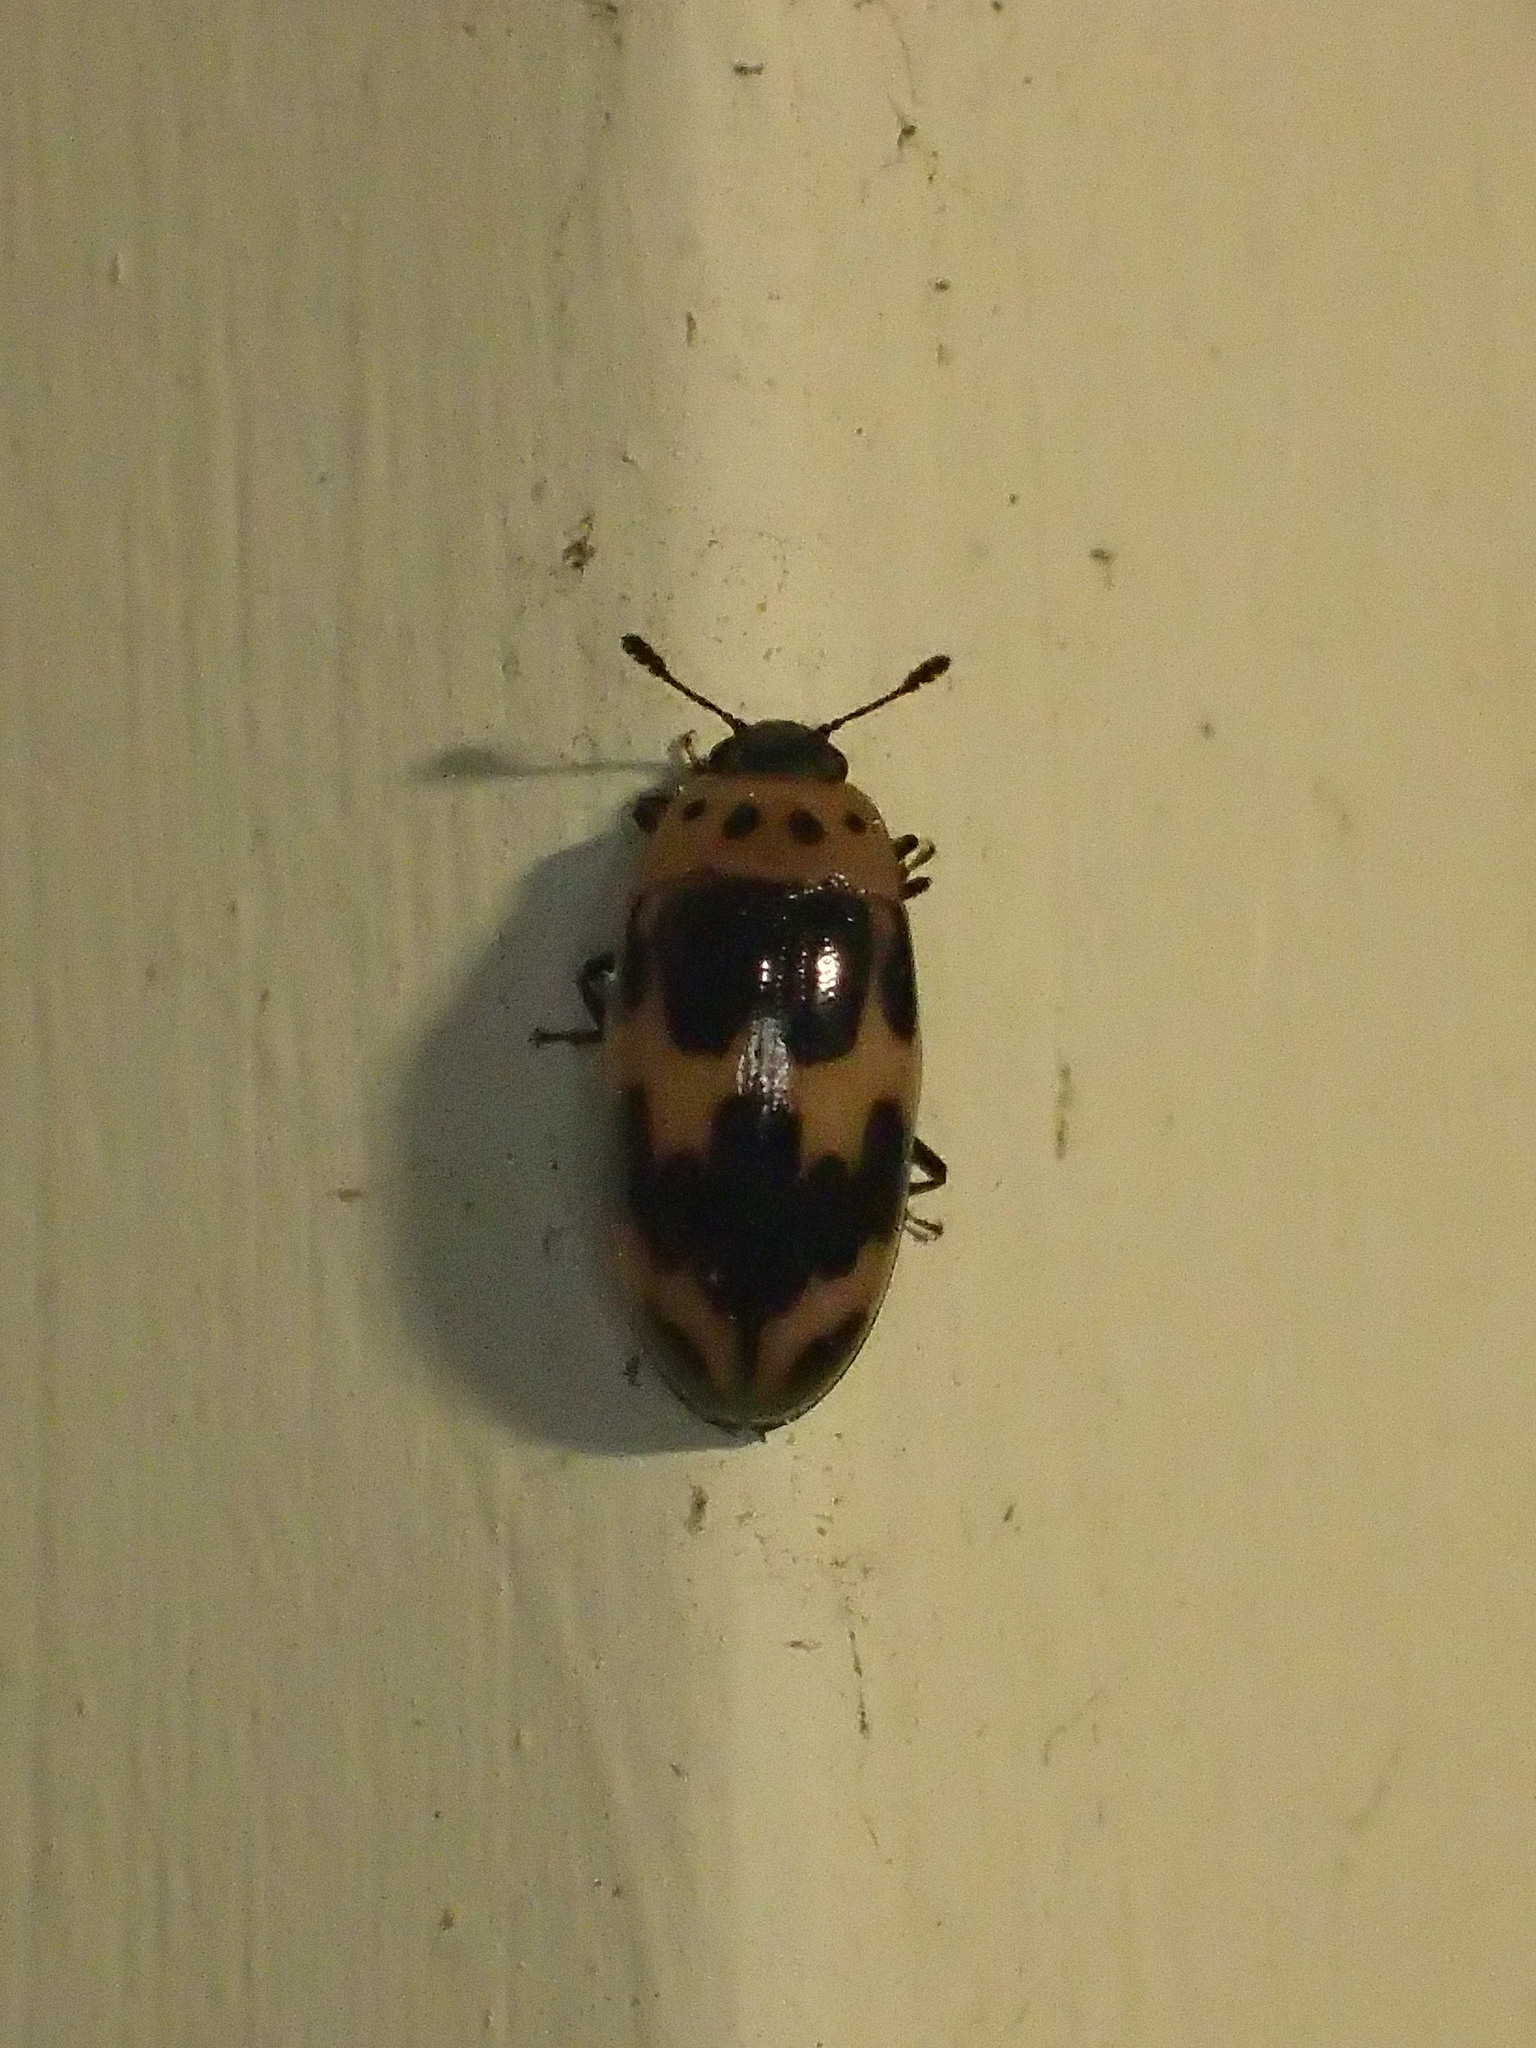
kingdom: Animalia
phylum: Arthropoda
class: Insecta
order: Coleoptera
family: Erotylidae
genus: Ischyrus
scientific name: Ischyrus quadripunctatus
